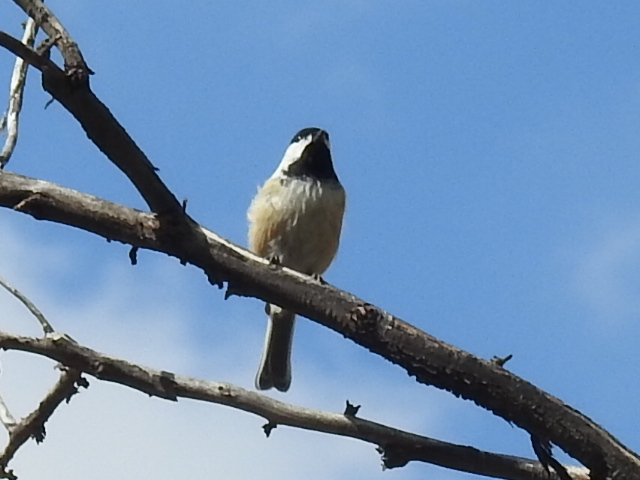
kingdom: Animalia
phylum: Chordata
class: Aves
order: Passeriformes
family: Paridae
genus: Poecile
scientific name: Poecile atricapillus
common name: Black-capped chickadee
